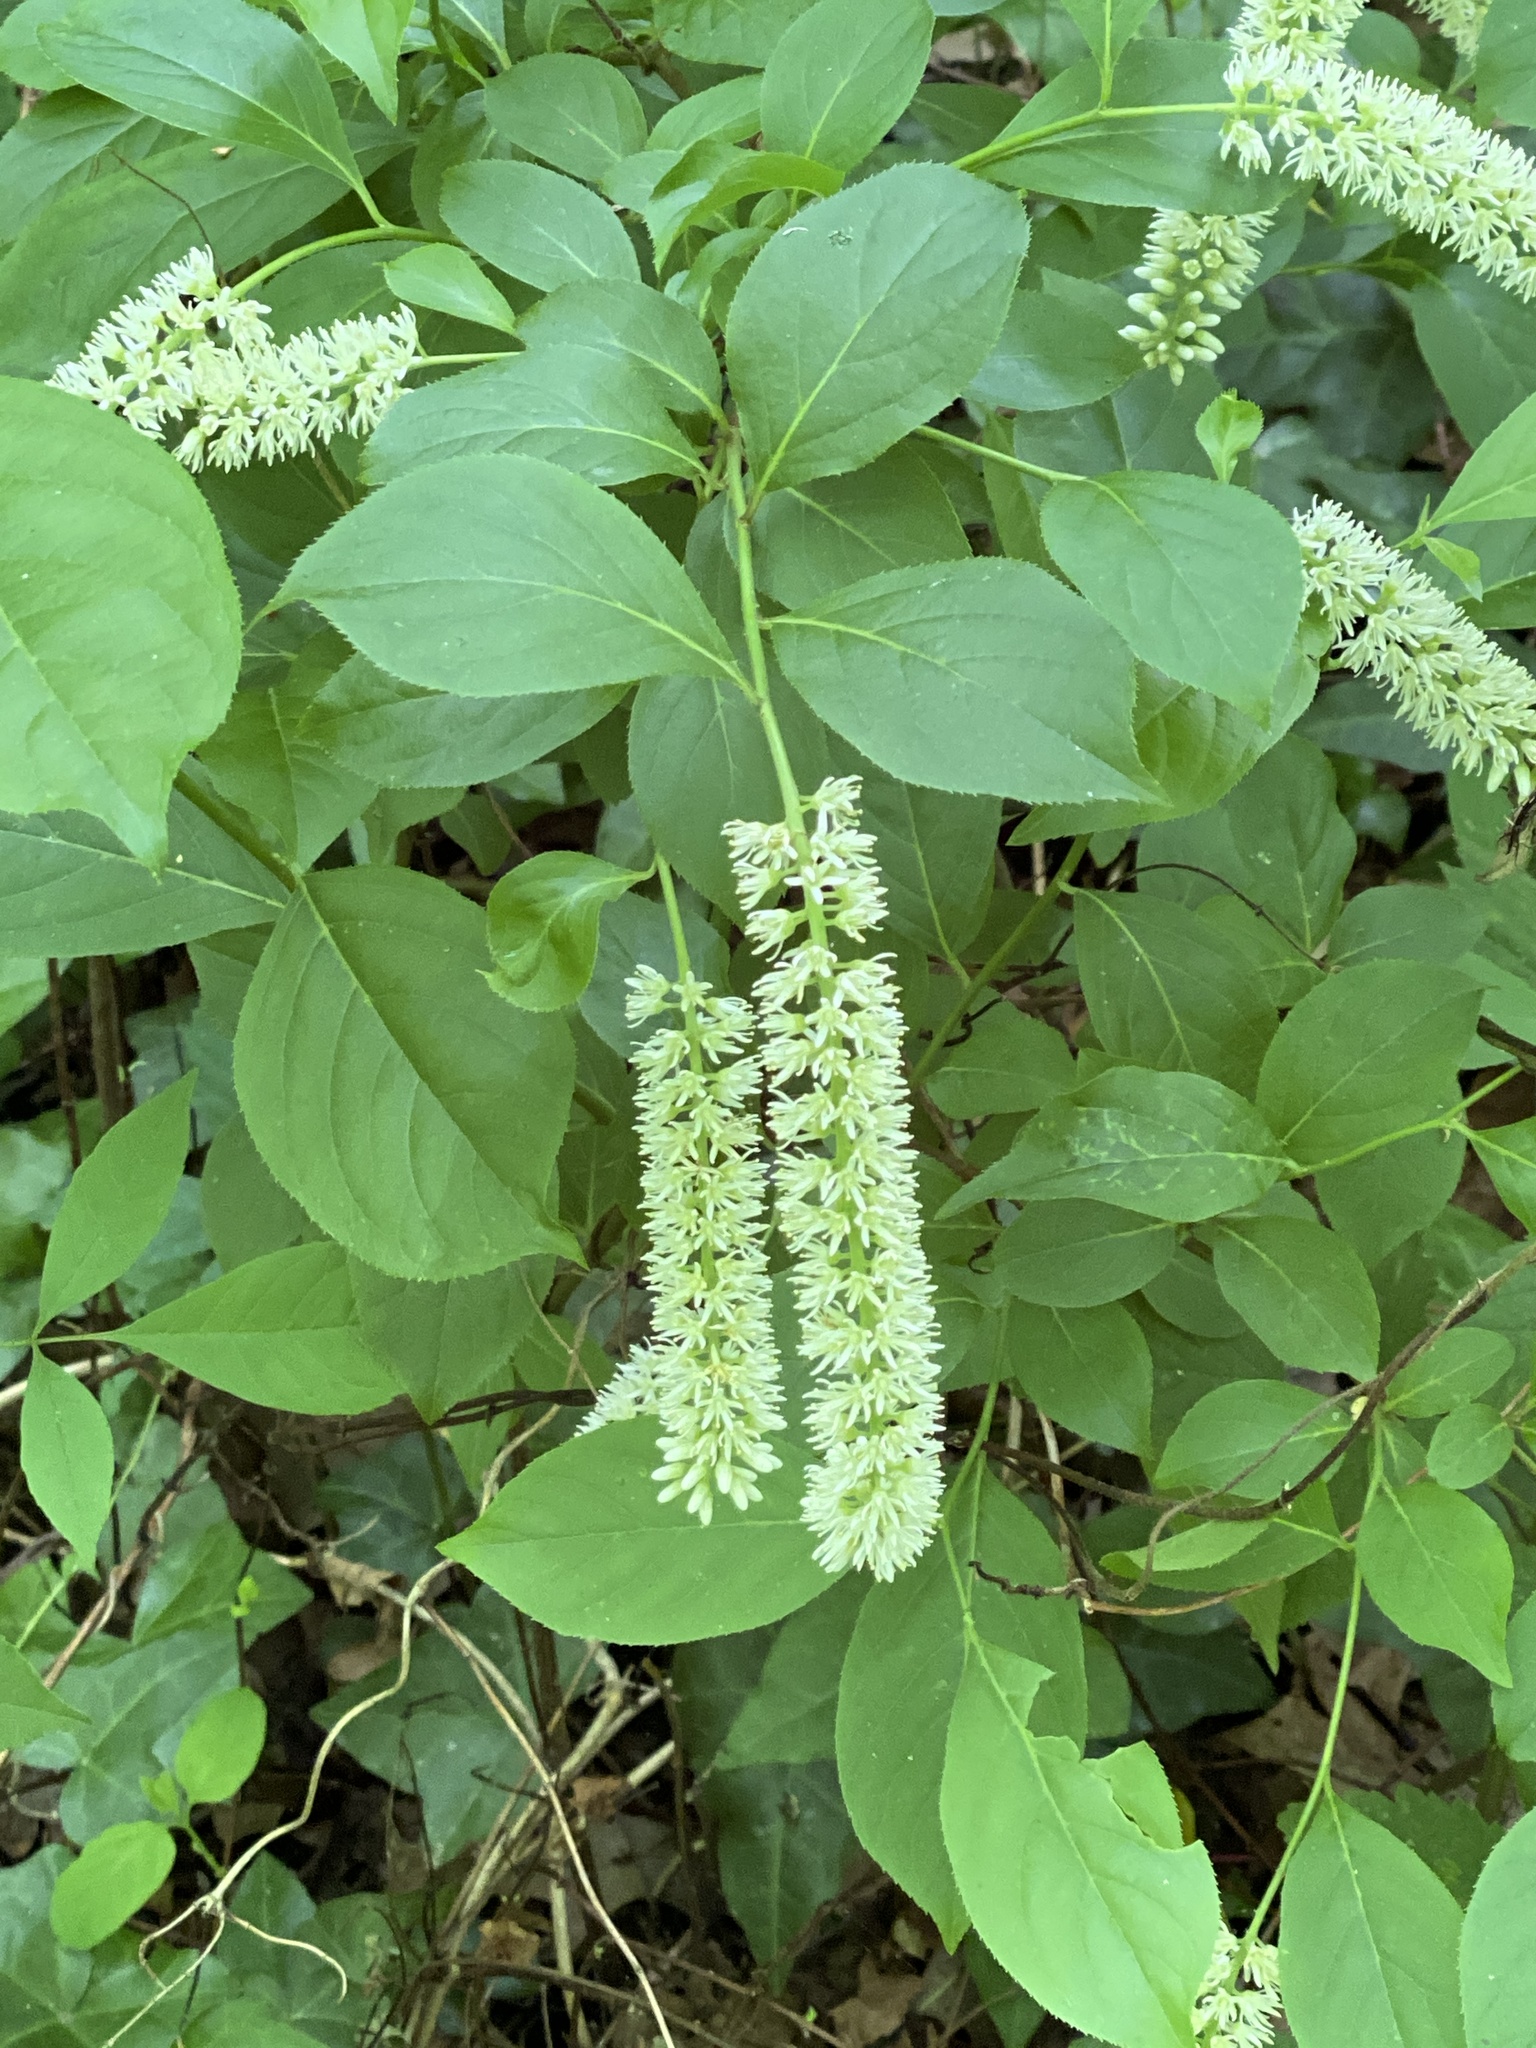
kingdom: Plantae
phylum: Tracheophyta
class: Magnoliopsida
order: Saxifragales
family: Iteaceae
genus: Itea
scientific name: Itea virginica
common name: Sweetspire
